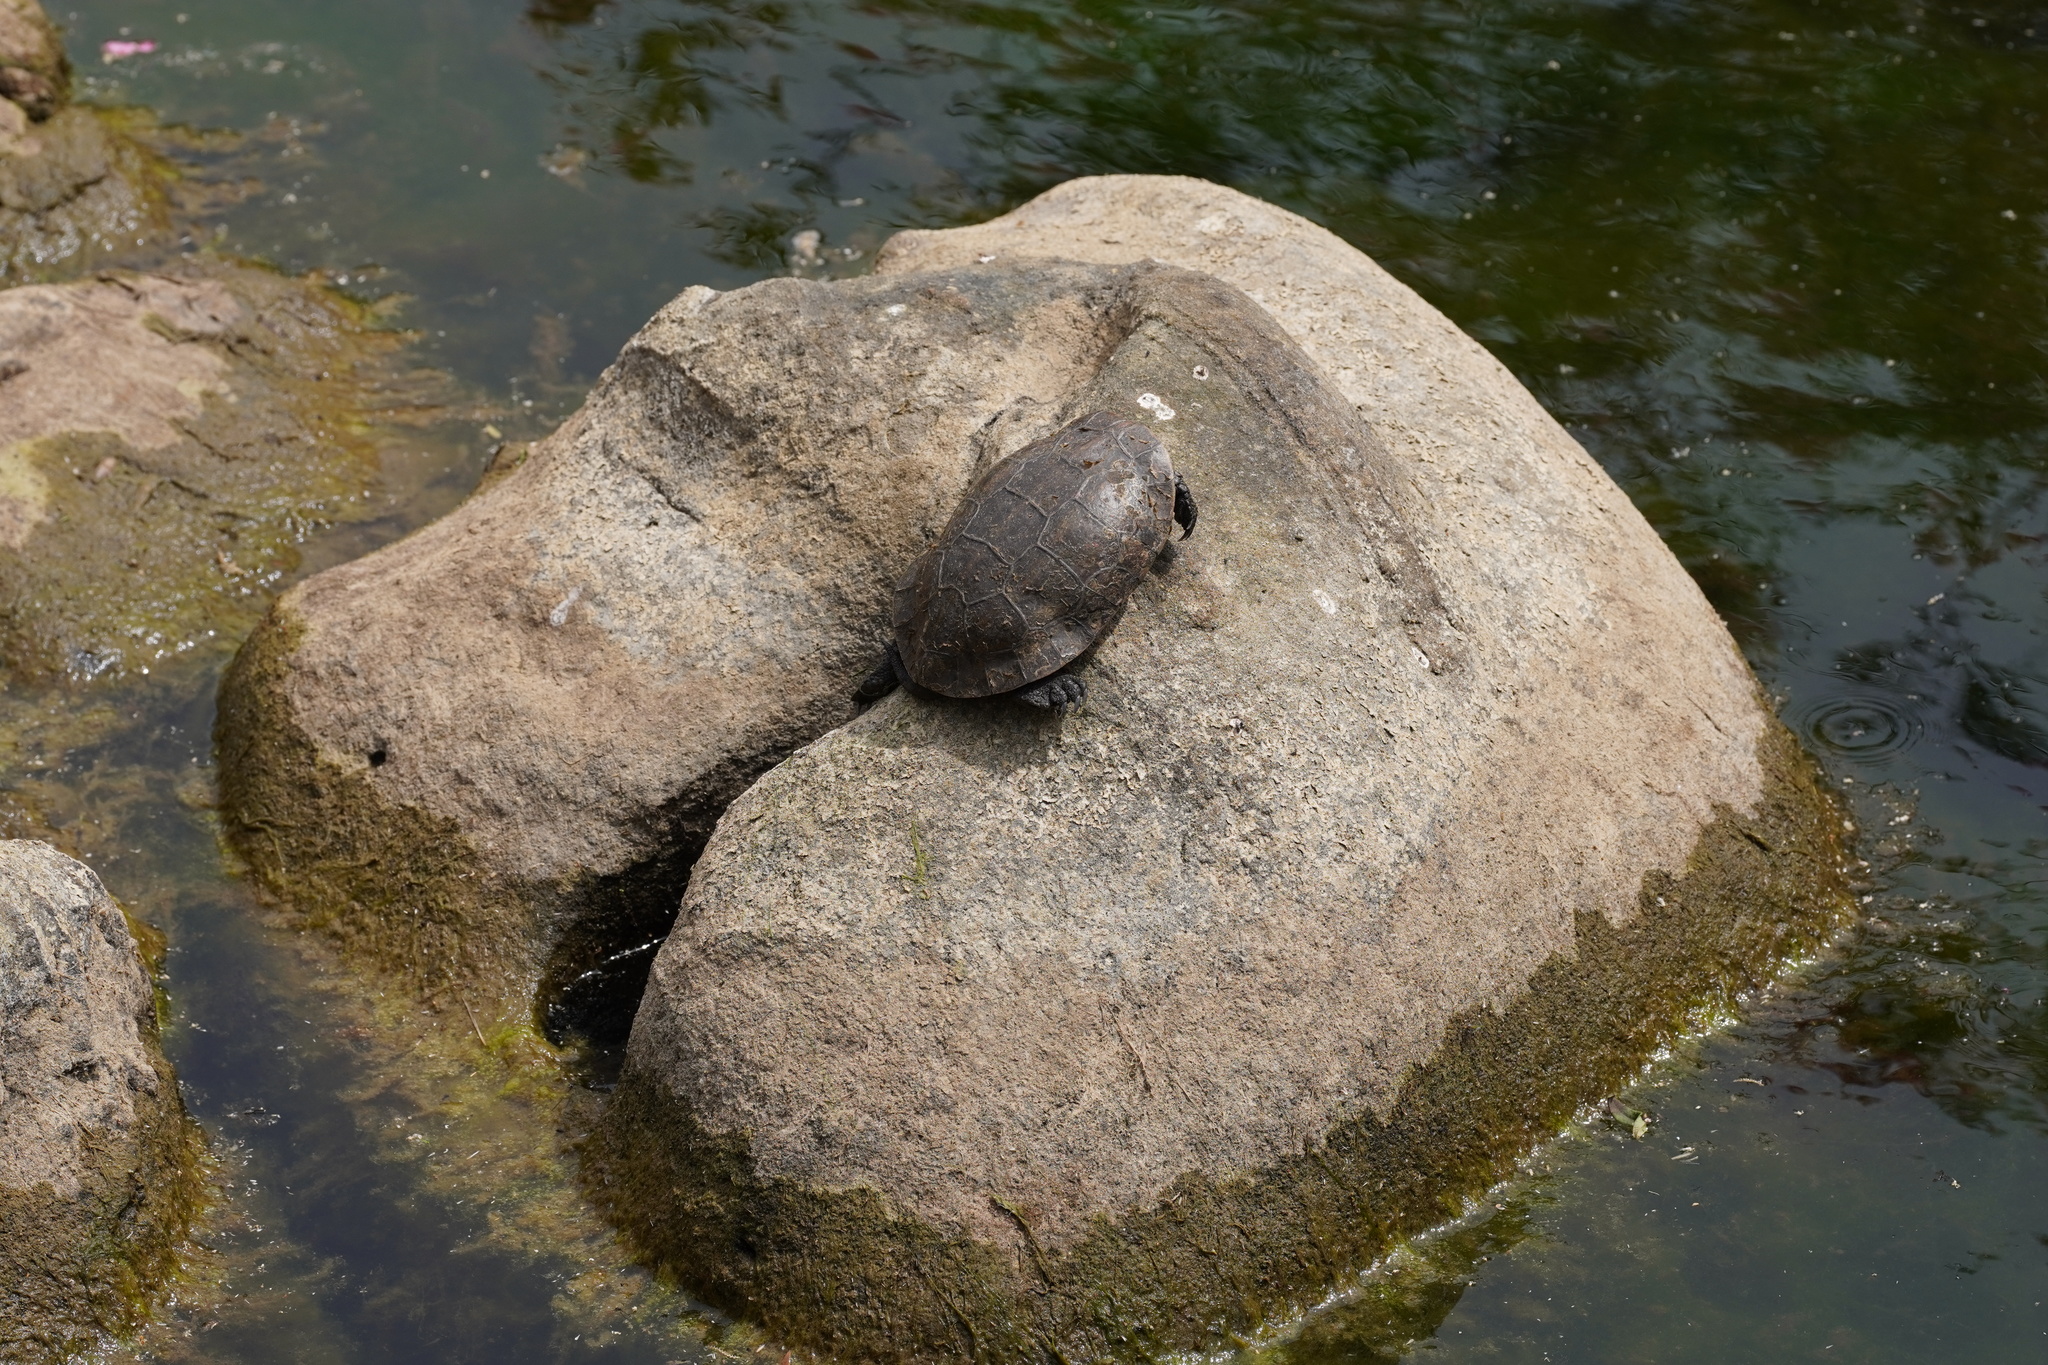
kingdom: Animalia
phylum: Chordata
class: Testudines
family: Geoemydidae
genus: Mauremys
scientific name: Mauremys leprosa
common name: Mediterranean pond turtle
